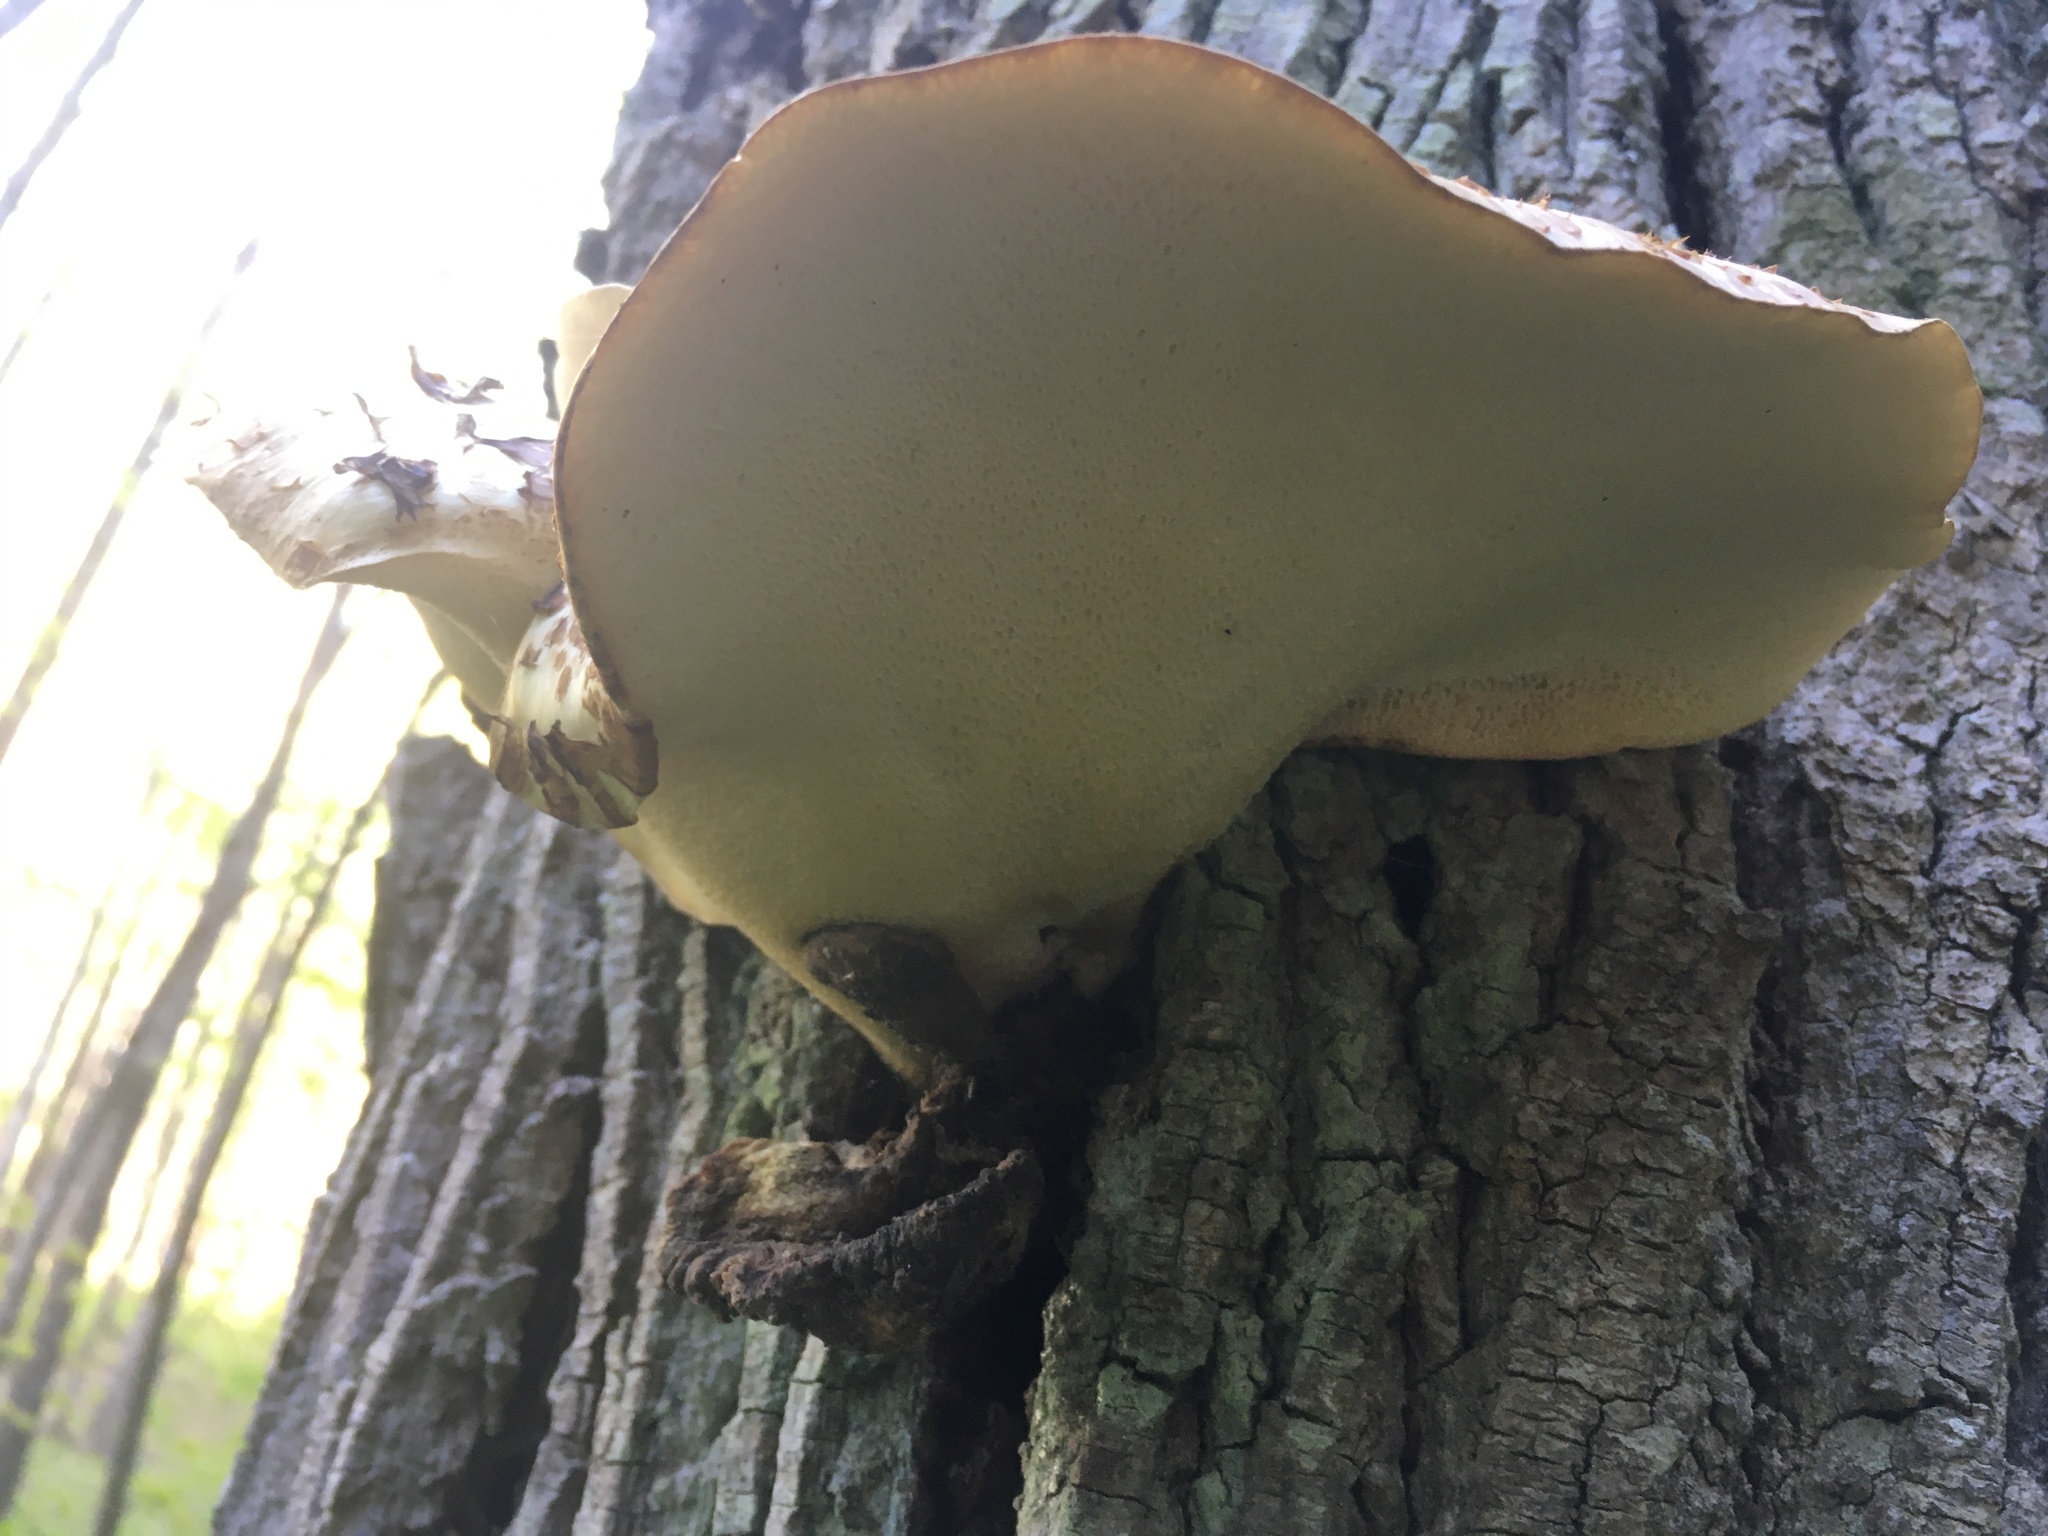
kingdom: Fungi
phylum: Basidiomycota
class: Agaricomycetes
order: Polyporales
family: Polyporaceae
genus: Cerioporus
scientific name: Cerioporus squamosus
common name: Dryad's saddle
